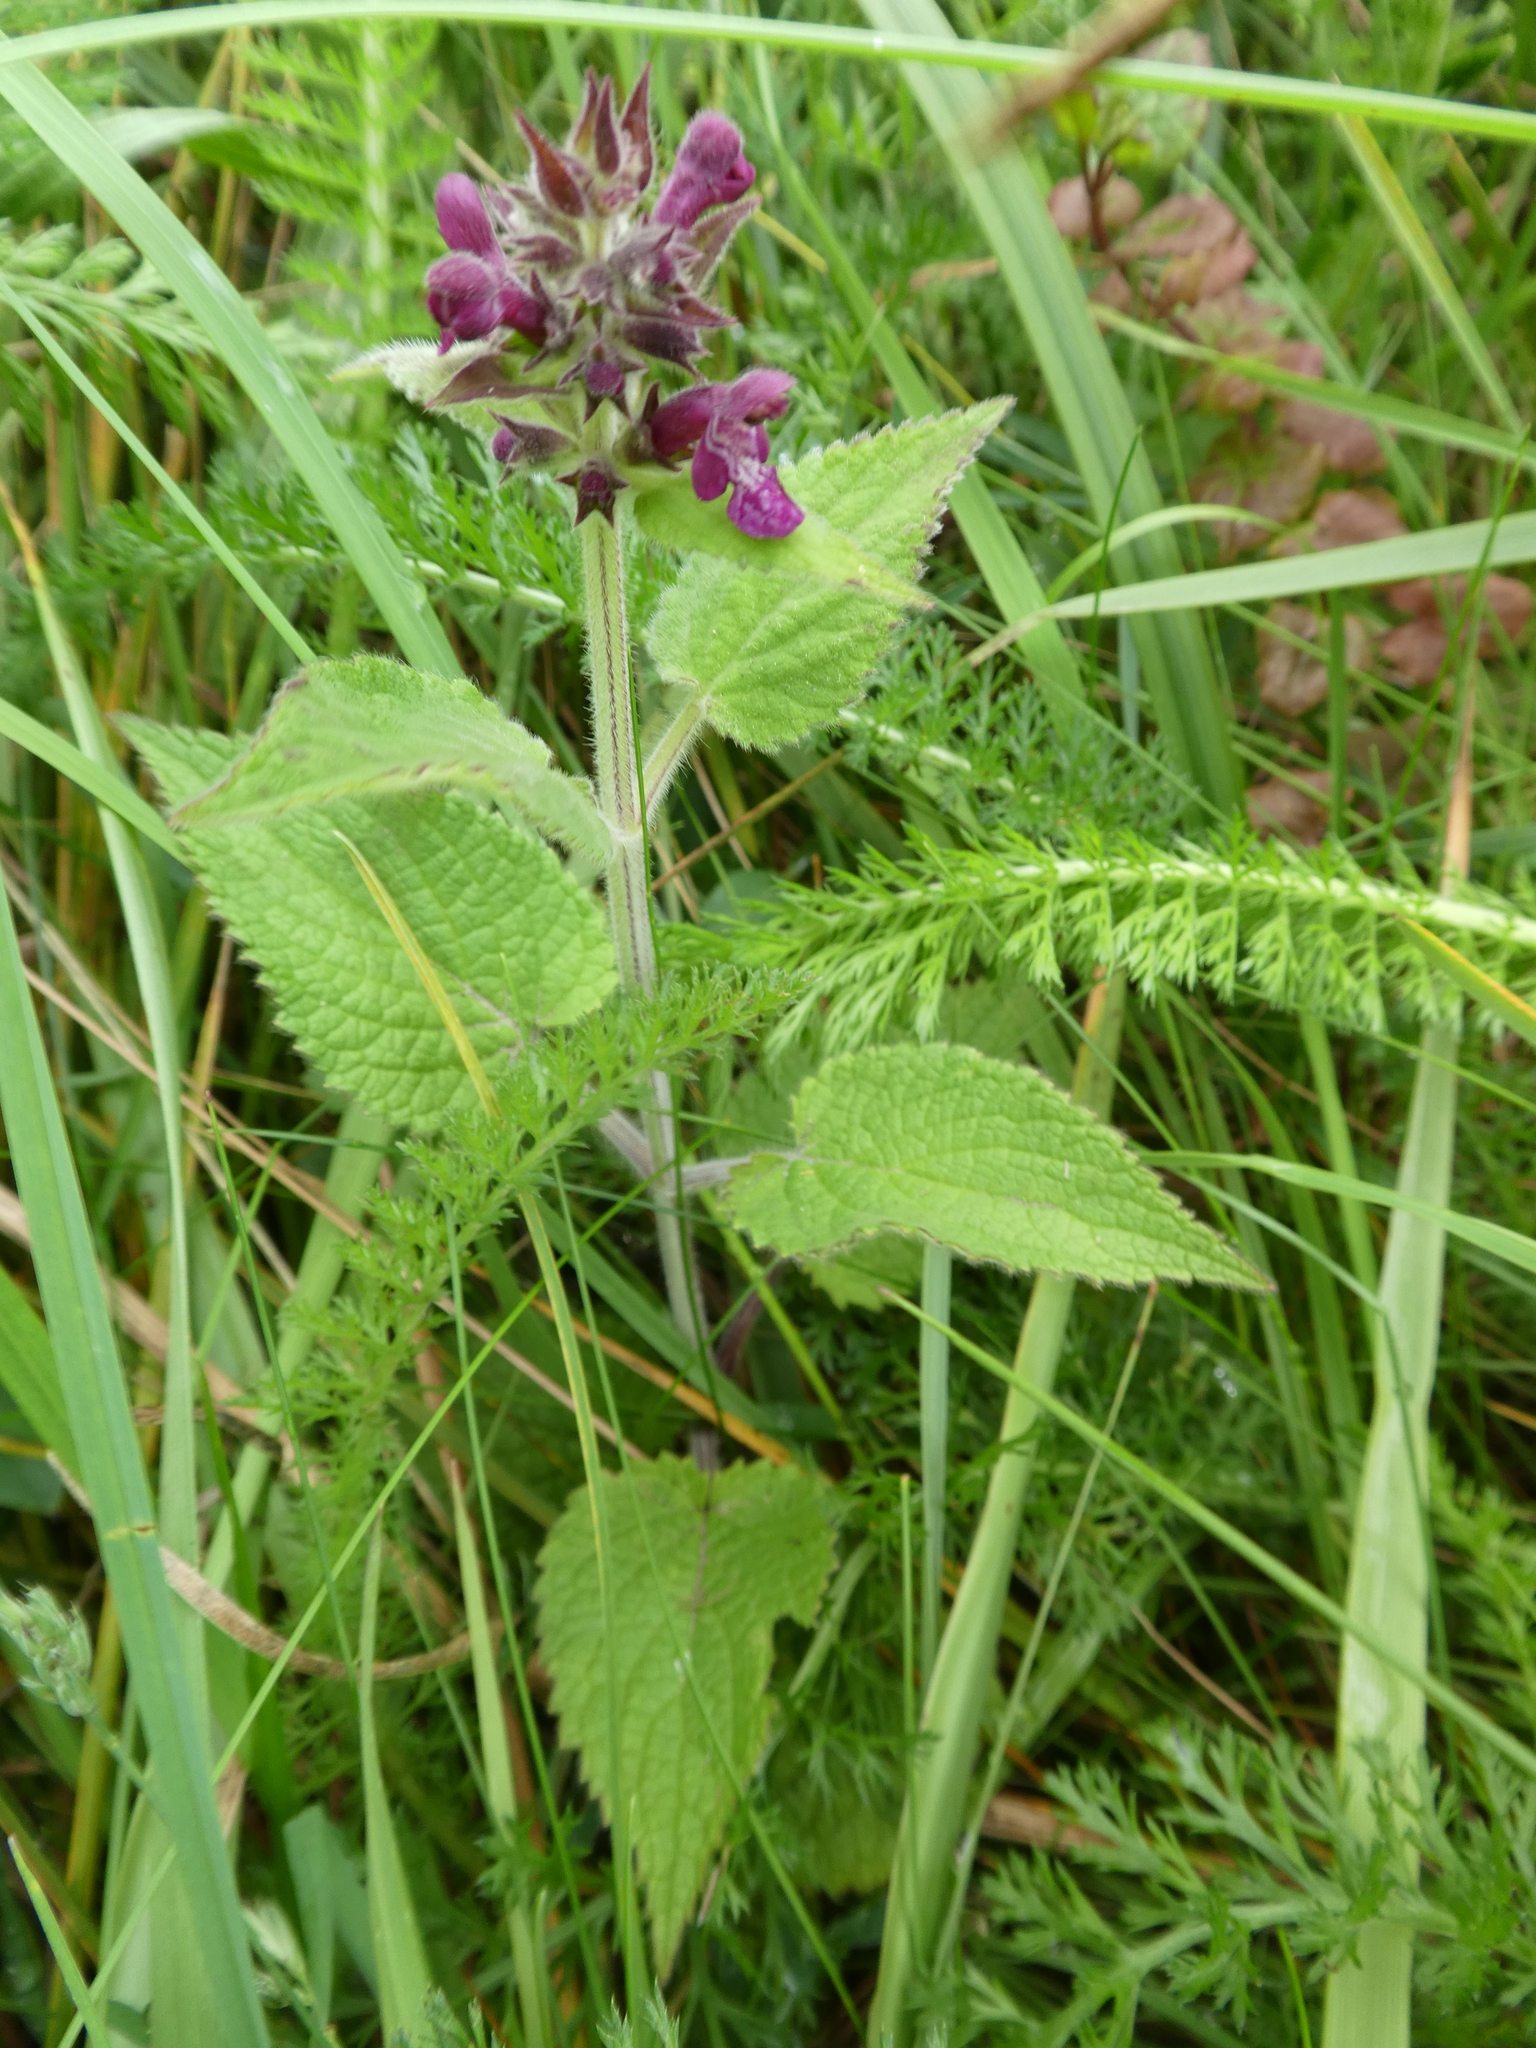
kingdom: Plantae
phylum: Tracheophyta
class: Magnoliopsida
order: Lamiales
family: Lamiaceae
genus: Stachys
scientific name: Stachys sylvatica
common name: Hedge woundwort
